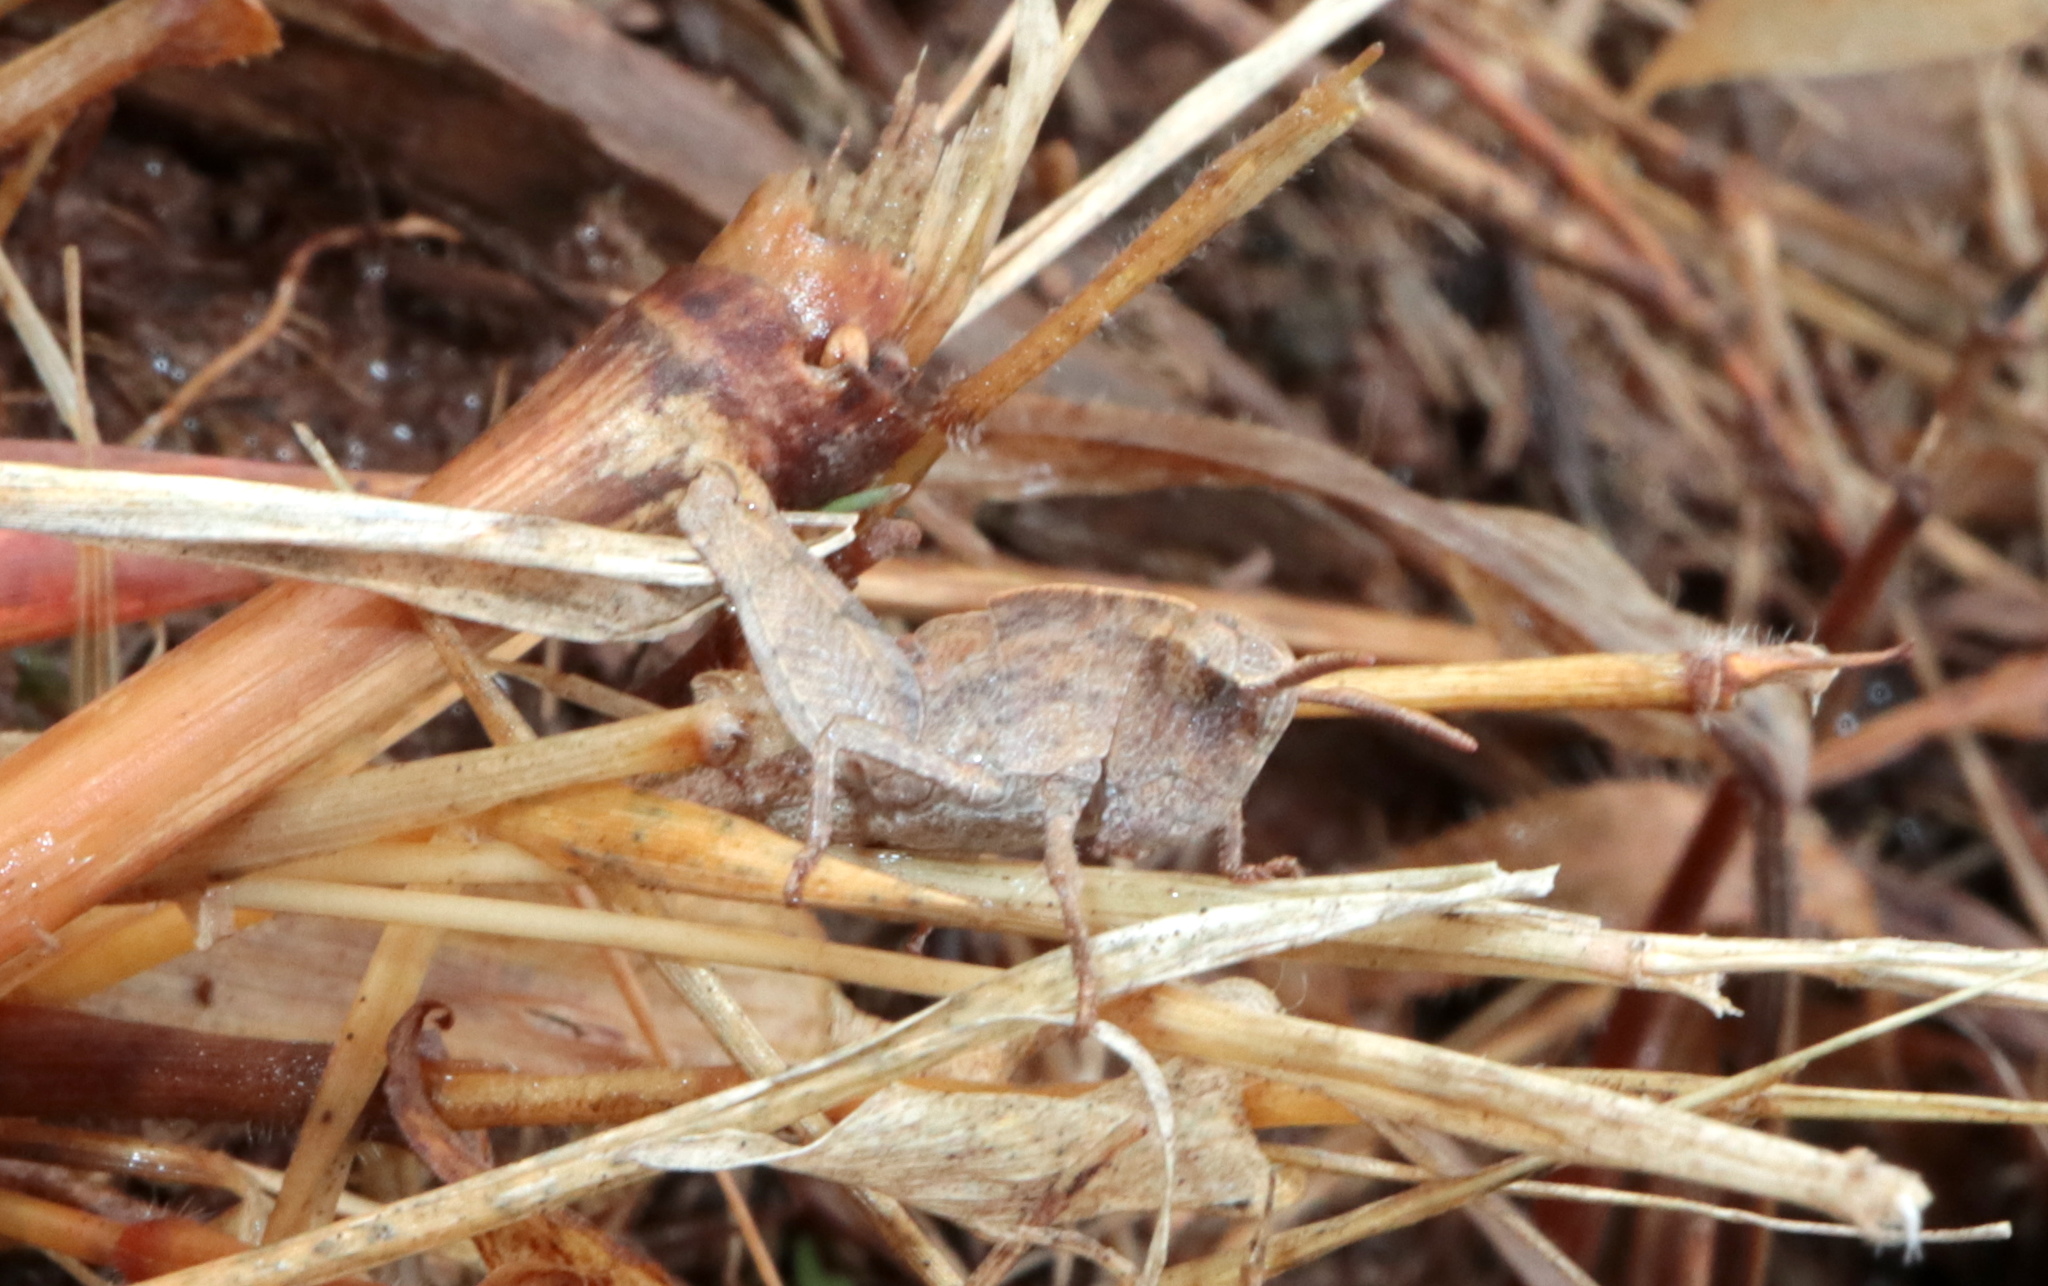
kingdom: Animalia
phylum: Arthropoda
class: Insecta
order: Orthoptera
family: Acrididae
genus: Chortophaga
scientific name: Chortophaga viridifasciata
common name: Green-striped grasshopper
